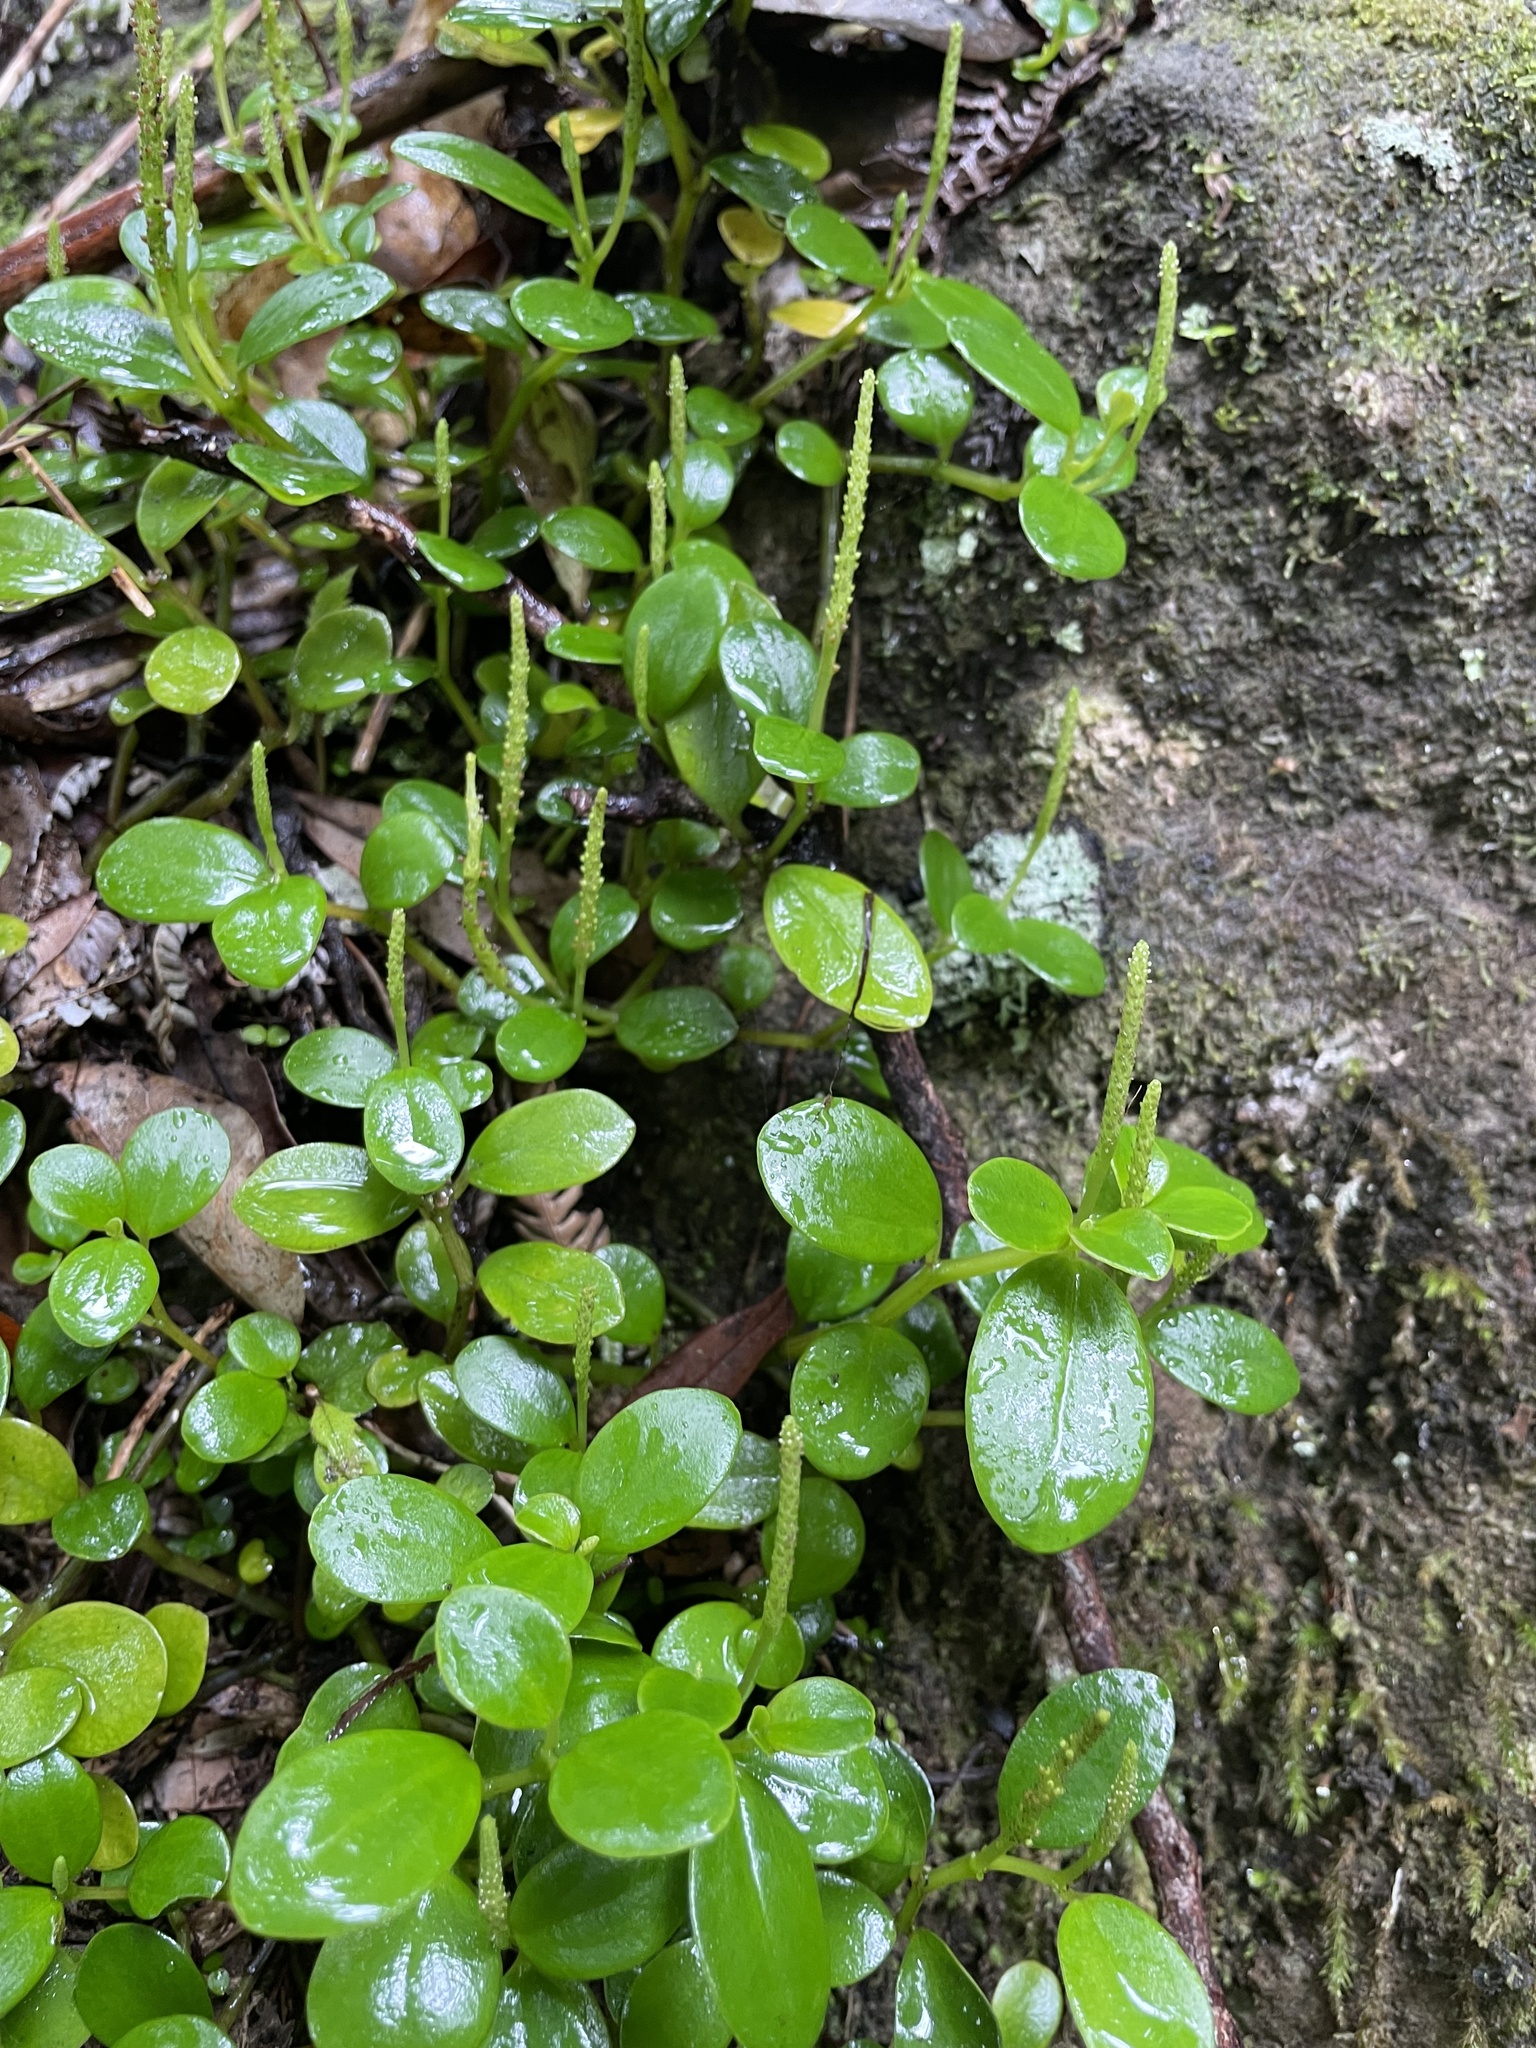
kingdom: Plantae
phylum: Tracheophyta
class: Magnoliopsida
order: Piperales
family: Piperaceae
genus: Peperomia
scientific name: Peperomia urvilleana
